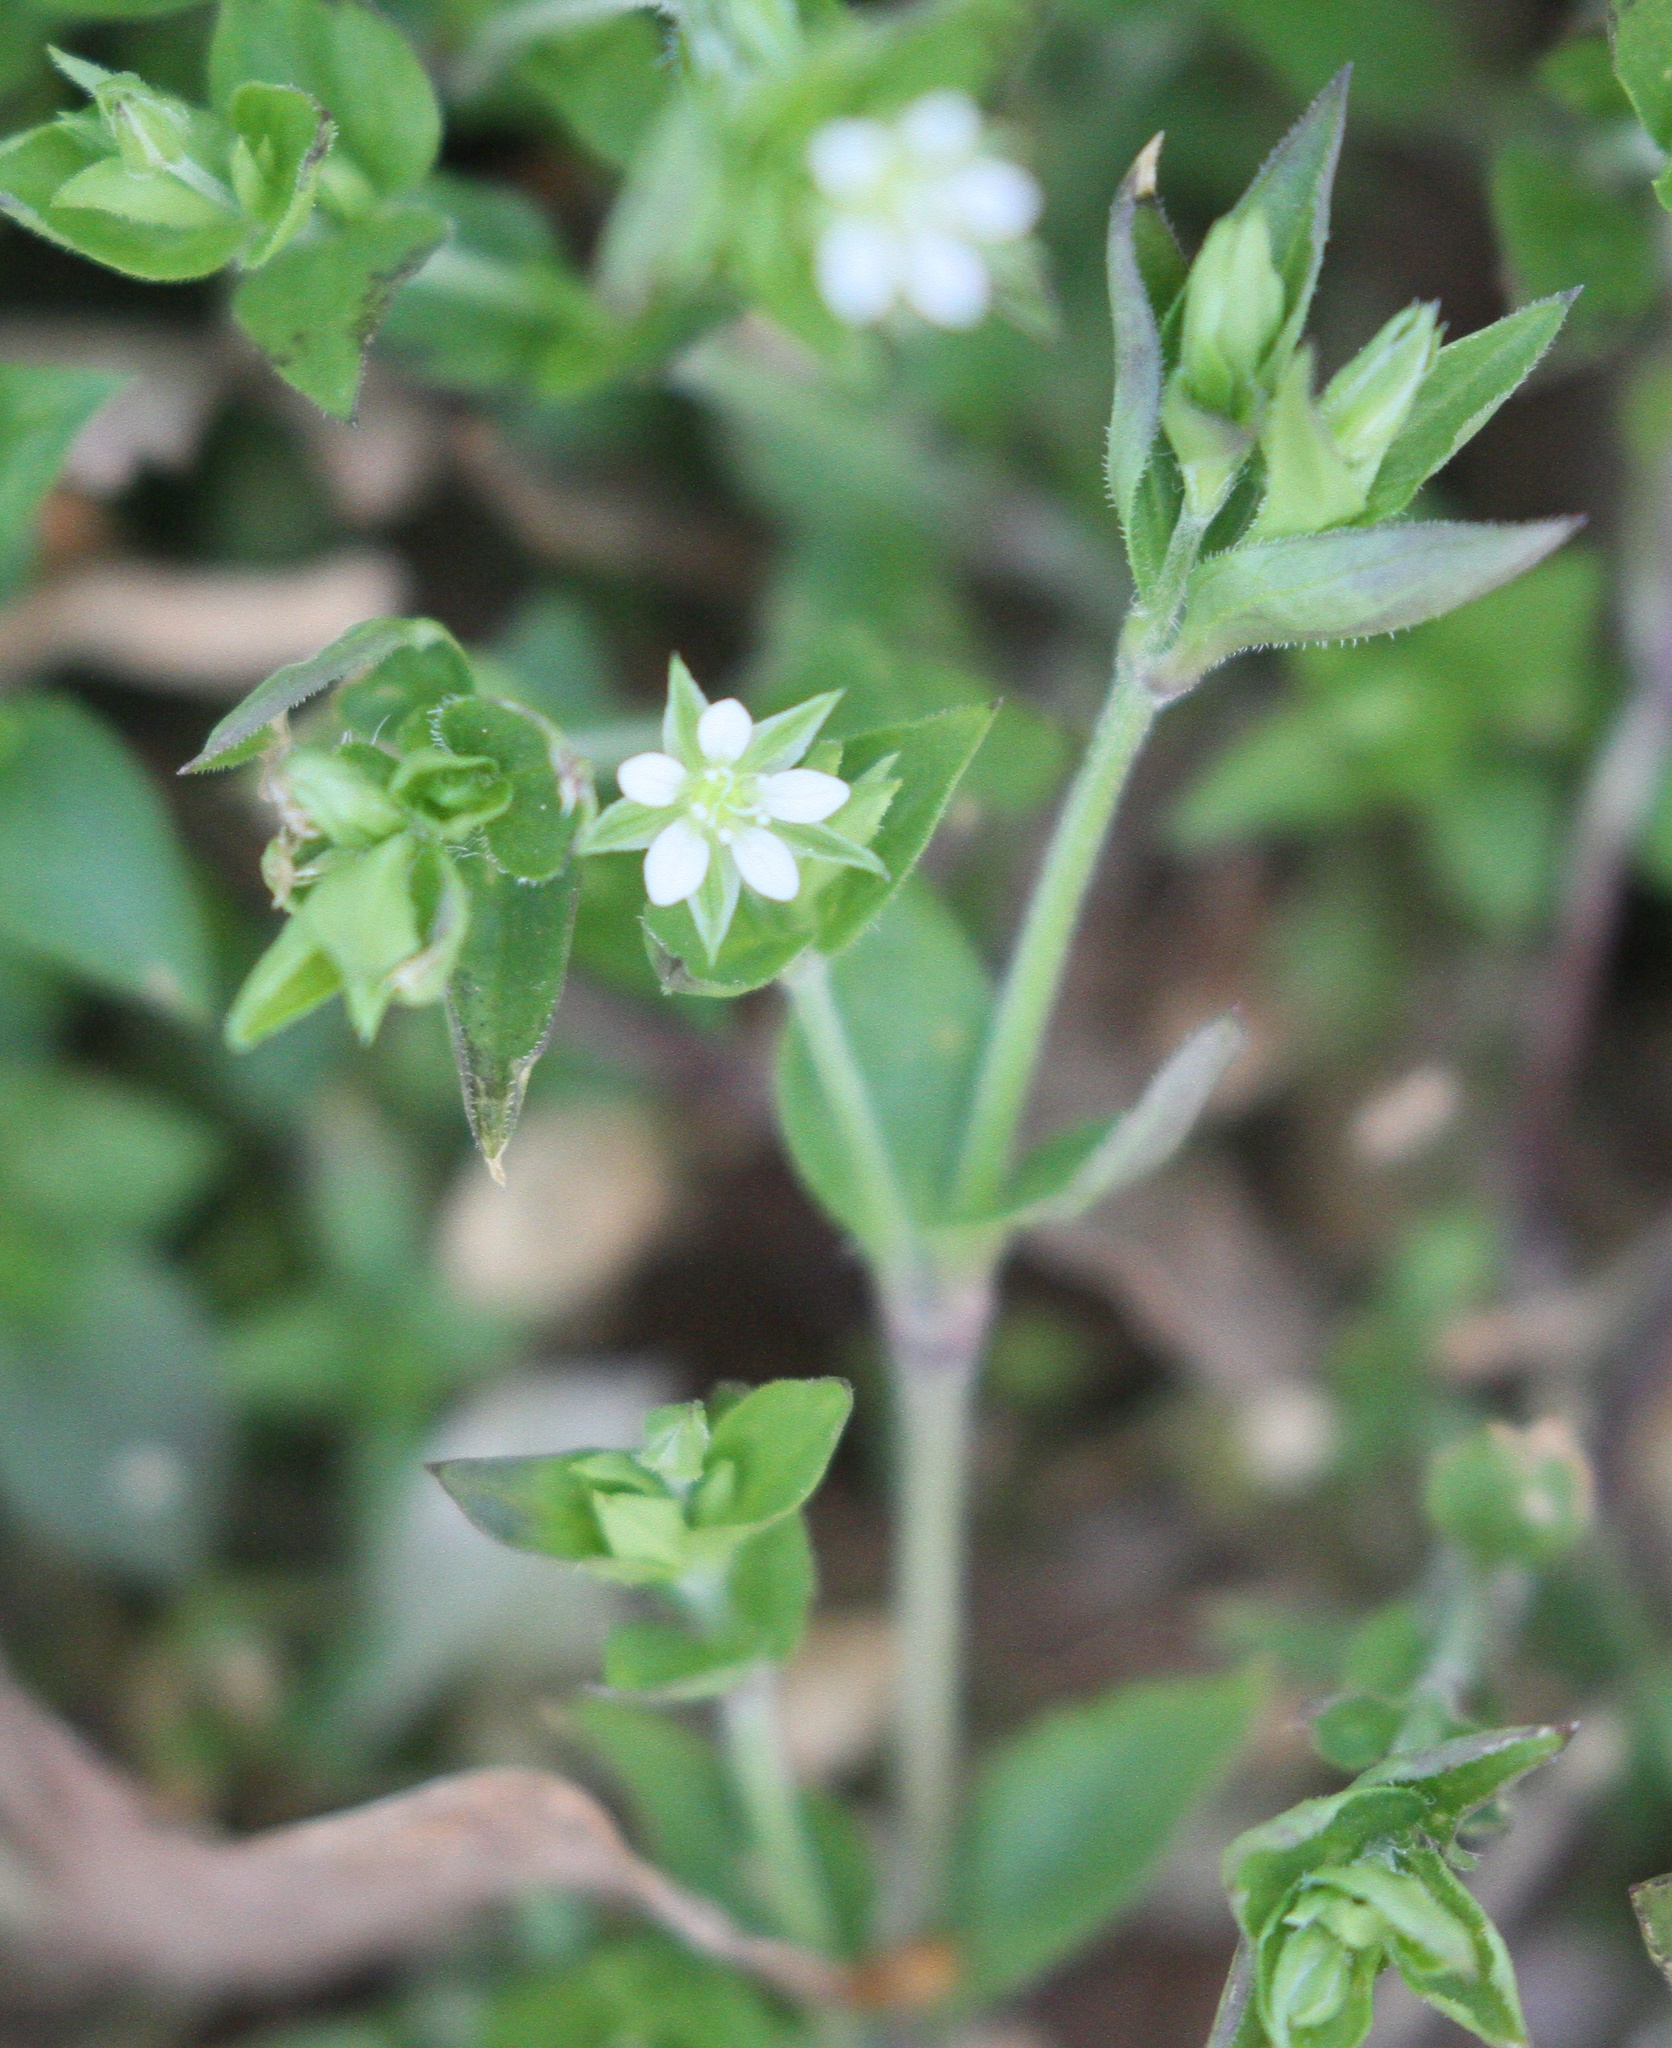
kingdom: Plantae
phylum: Tracheophyta
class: Magnoliopsida
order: Caryophyllales
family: Caryophyllaceae
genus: Arenaria
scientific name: Arenaria serpyllifolia
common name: Thyme-leaved sandwort
